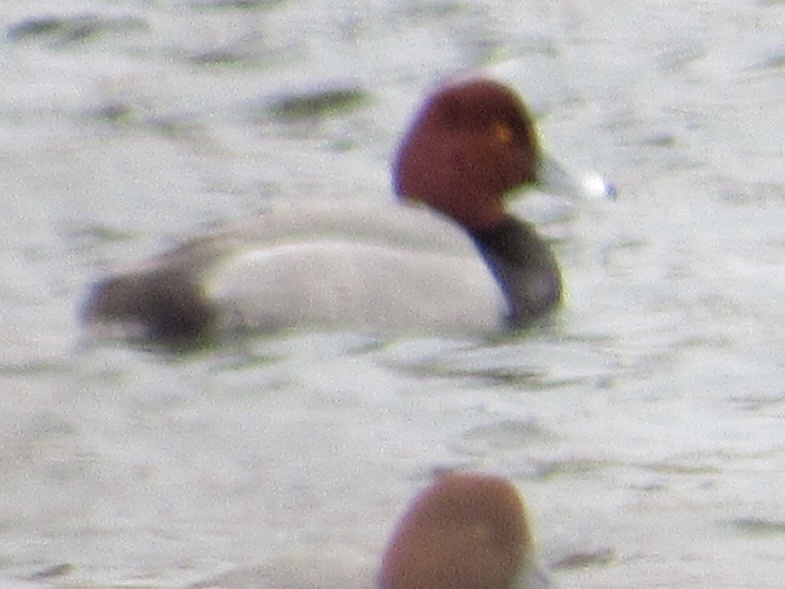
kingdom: Animalia
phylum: Chordata
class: Aves
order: Anseriformes
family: Anatidae
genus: Aythya
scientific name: Aythya americana
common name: Redhead
